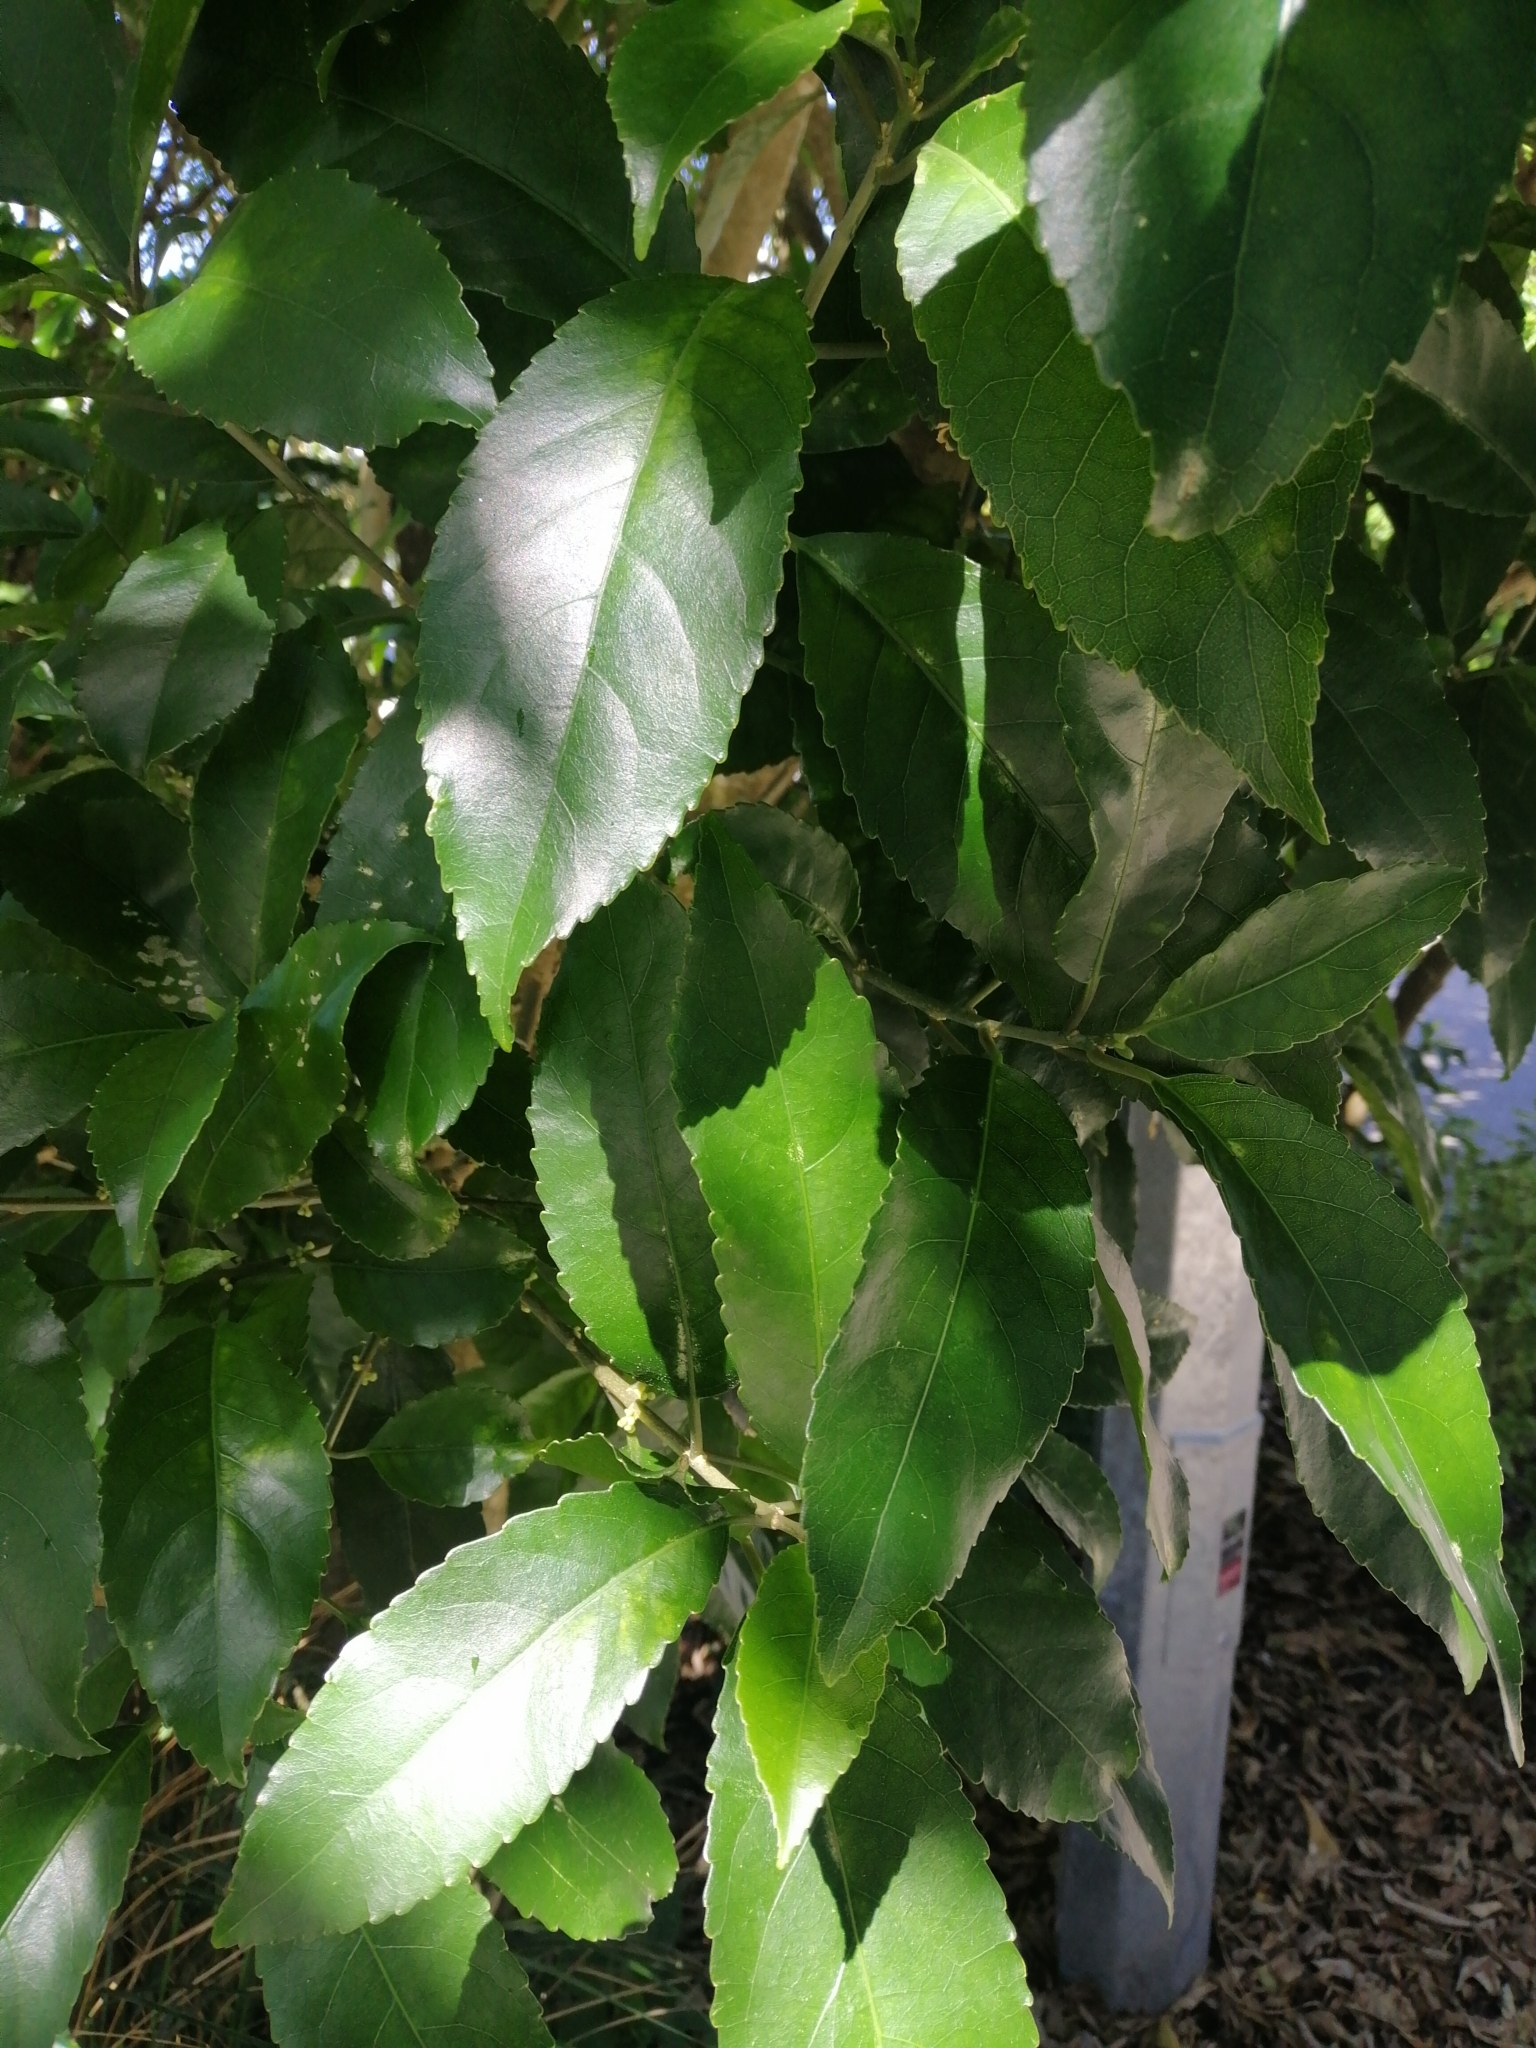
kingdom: Plantae
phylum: Tracheophyta
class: Magnoliopsida
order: Malpighiales
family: Violaceae
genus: Melicytus
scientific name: Melicytus ramiflorus
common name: Mahoe
